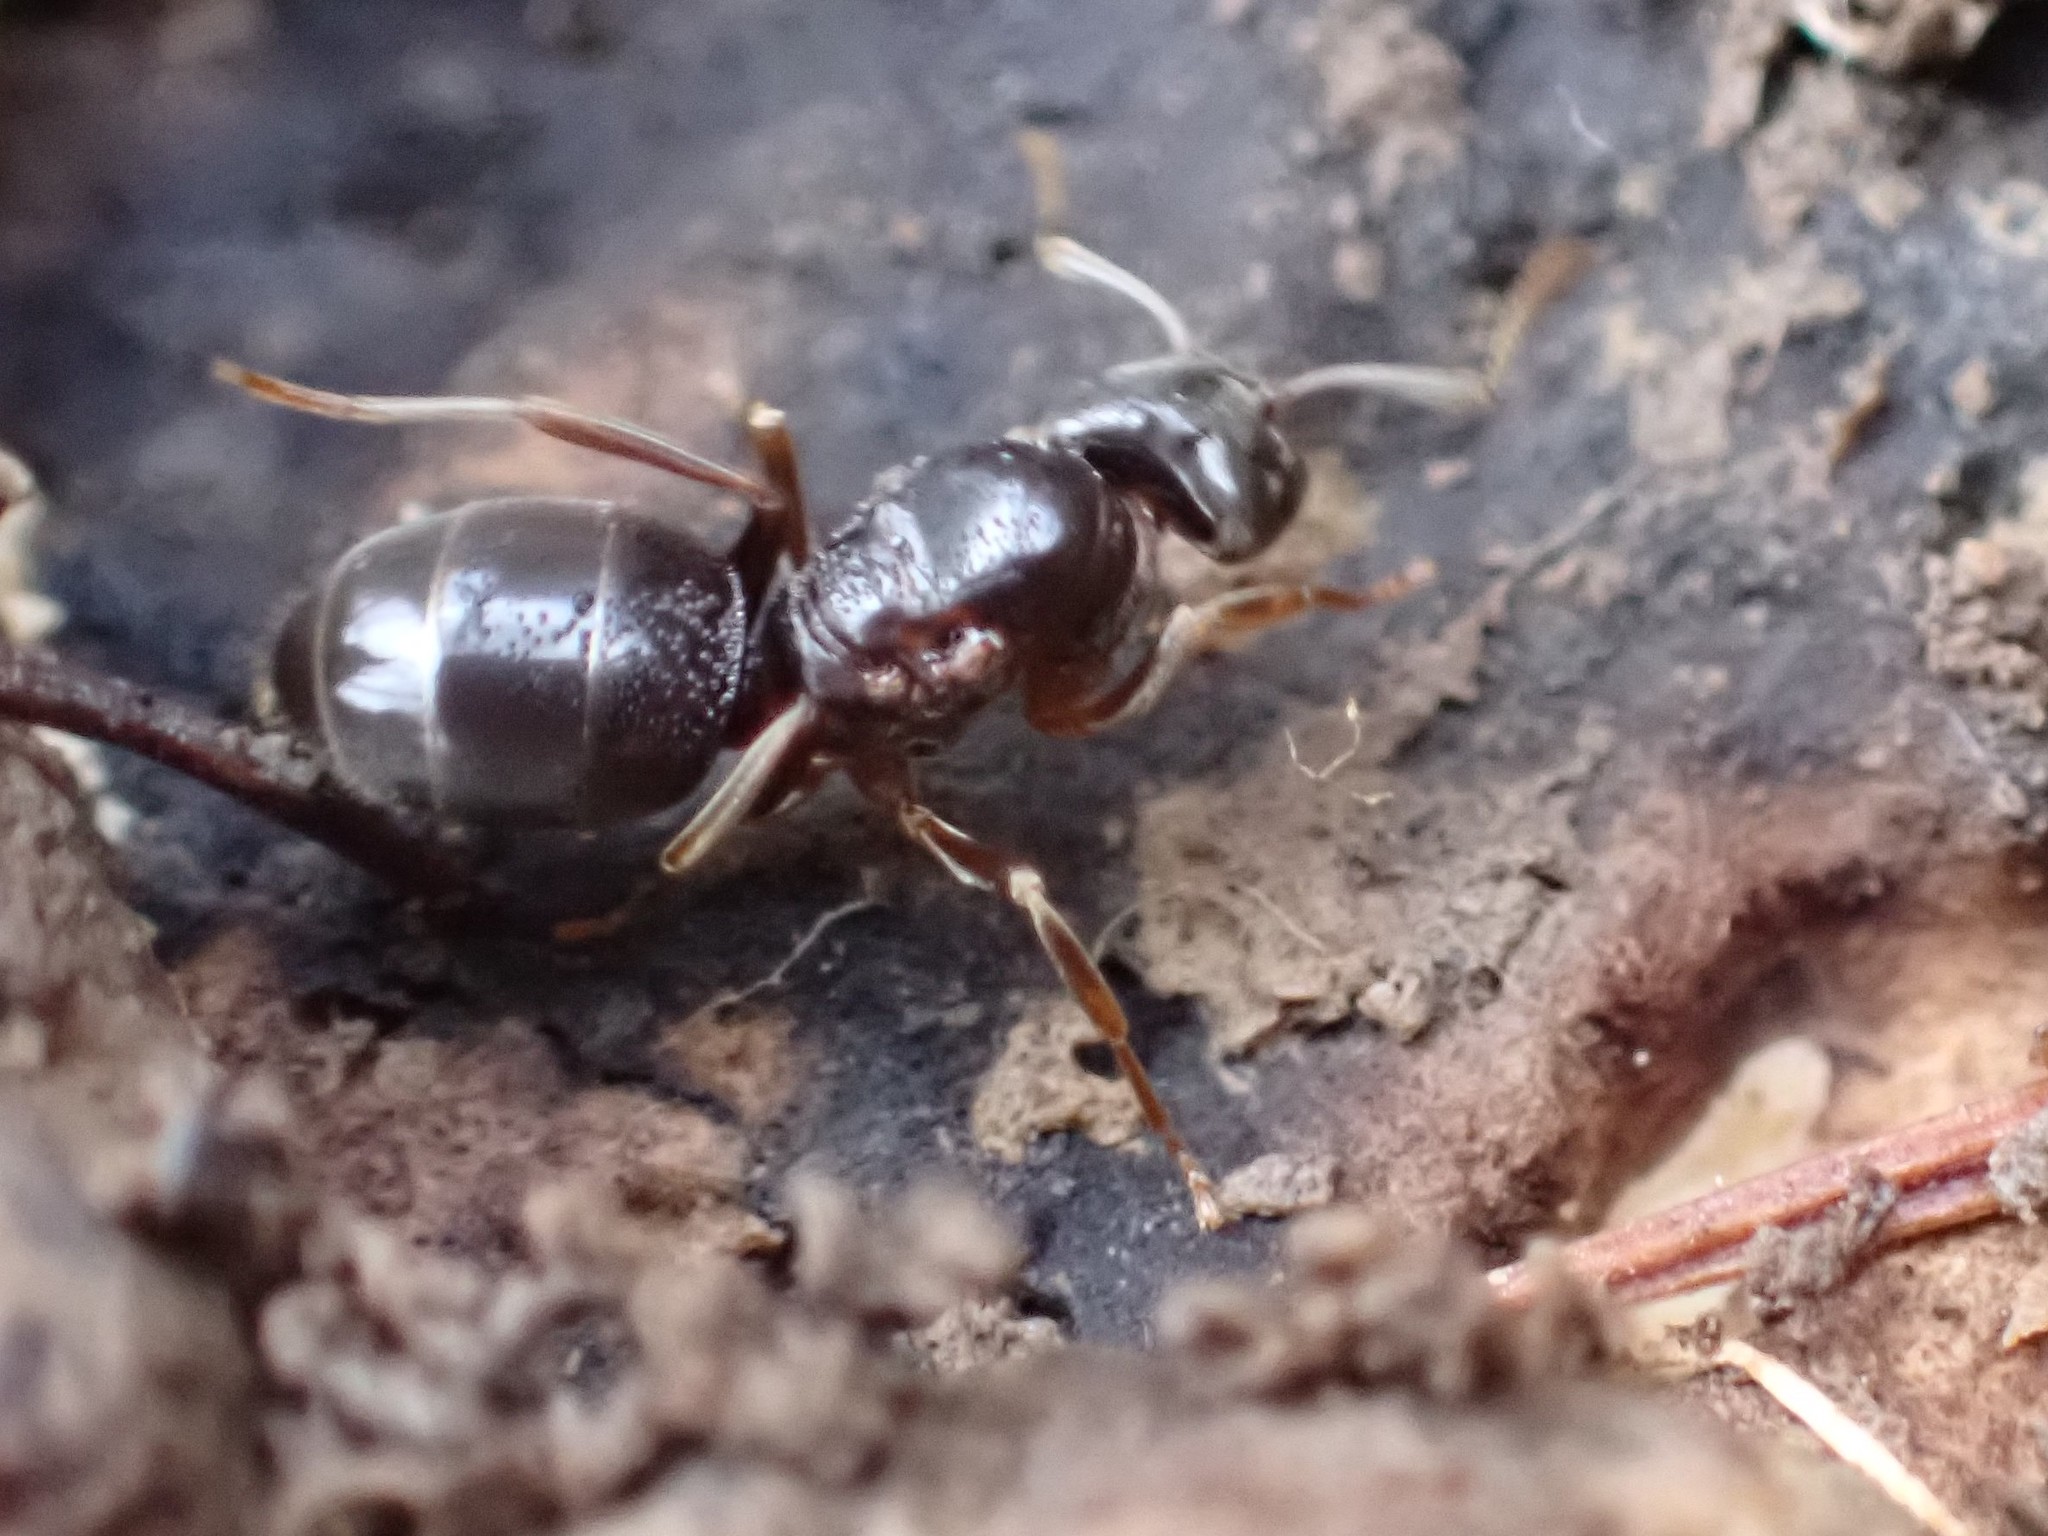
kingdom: Animalia
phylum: Arthropoda
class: Insecta
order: Hymenoptera
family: Formicidae
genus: Lasius
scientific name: Lasius aphidicola
